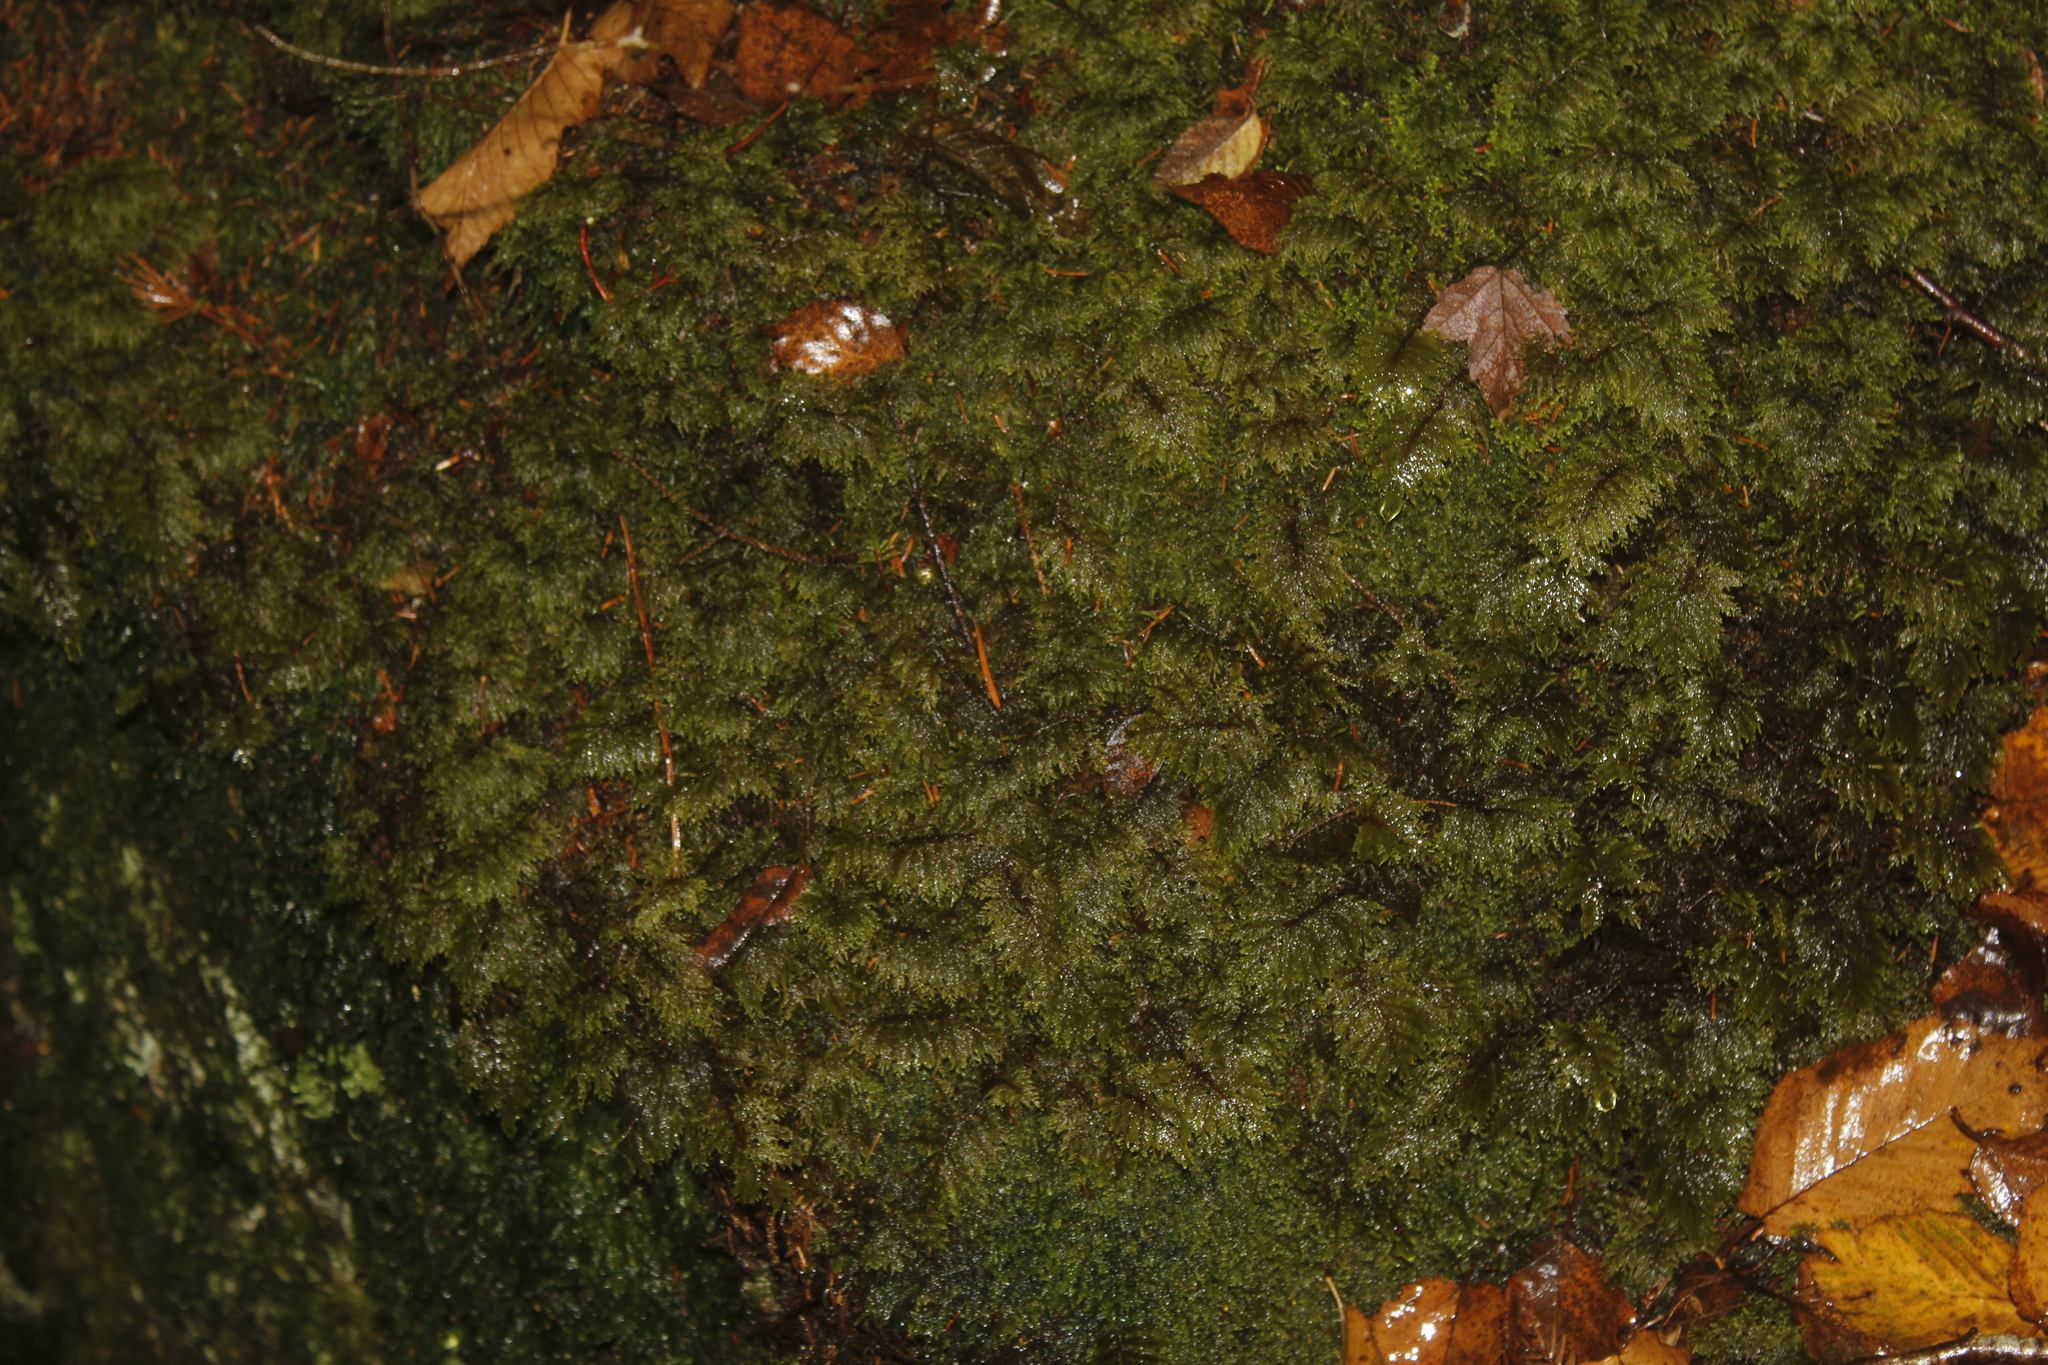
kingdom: Plantae
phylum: Bryophyta
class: Bryopsida
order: Hypnales
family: Hylocomiaceae
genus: Hylocomium
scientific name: Hylocomium splendens
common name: Stairstep moss
